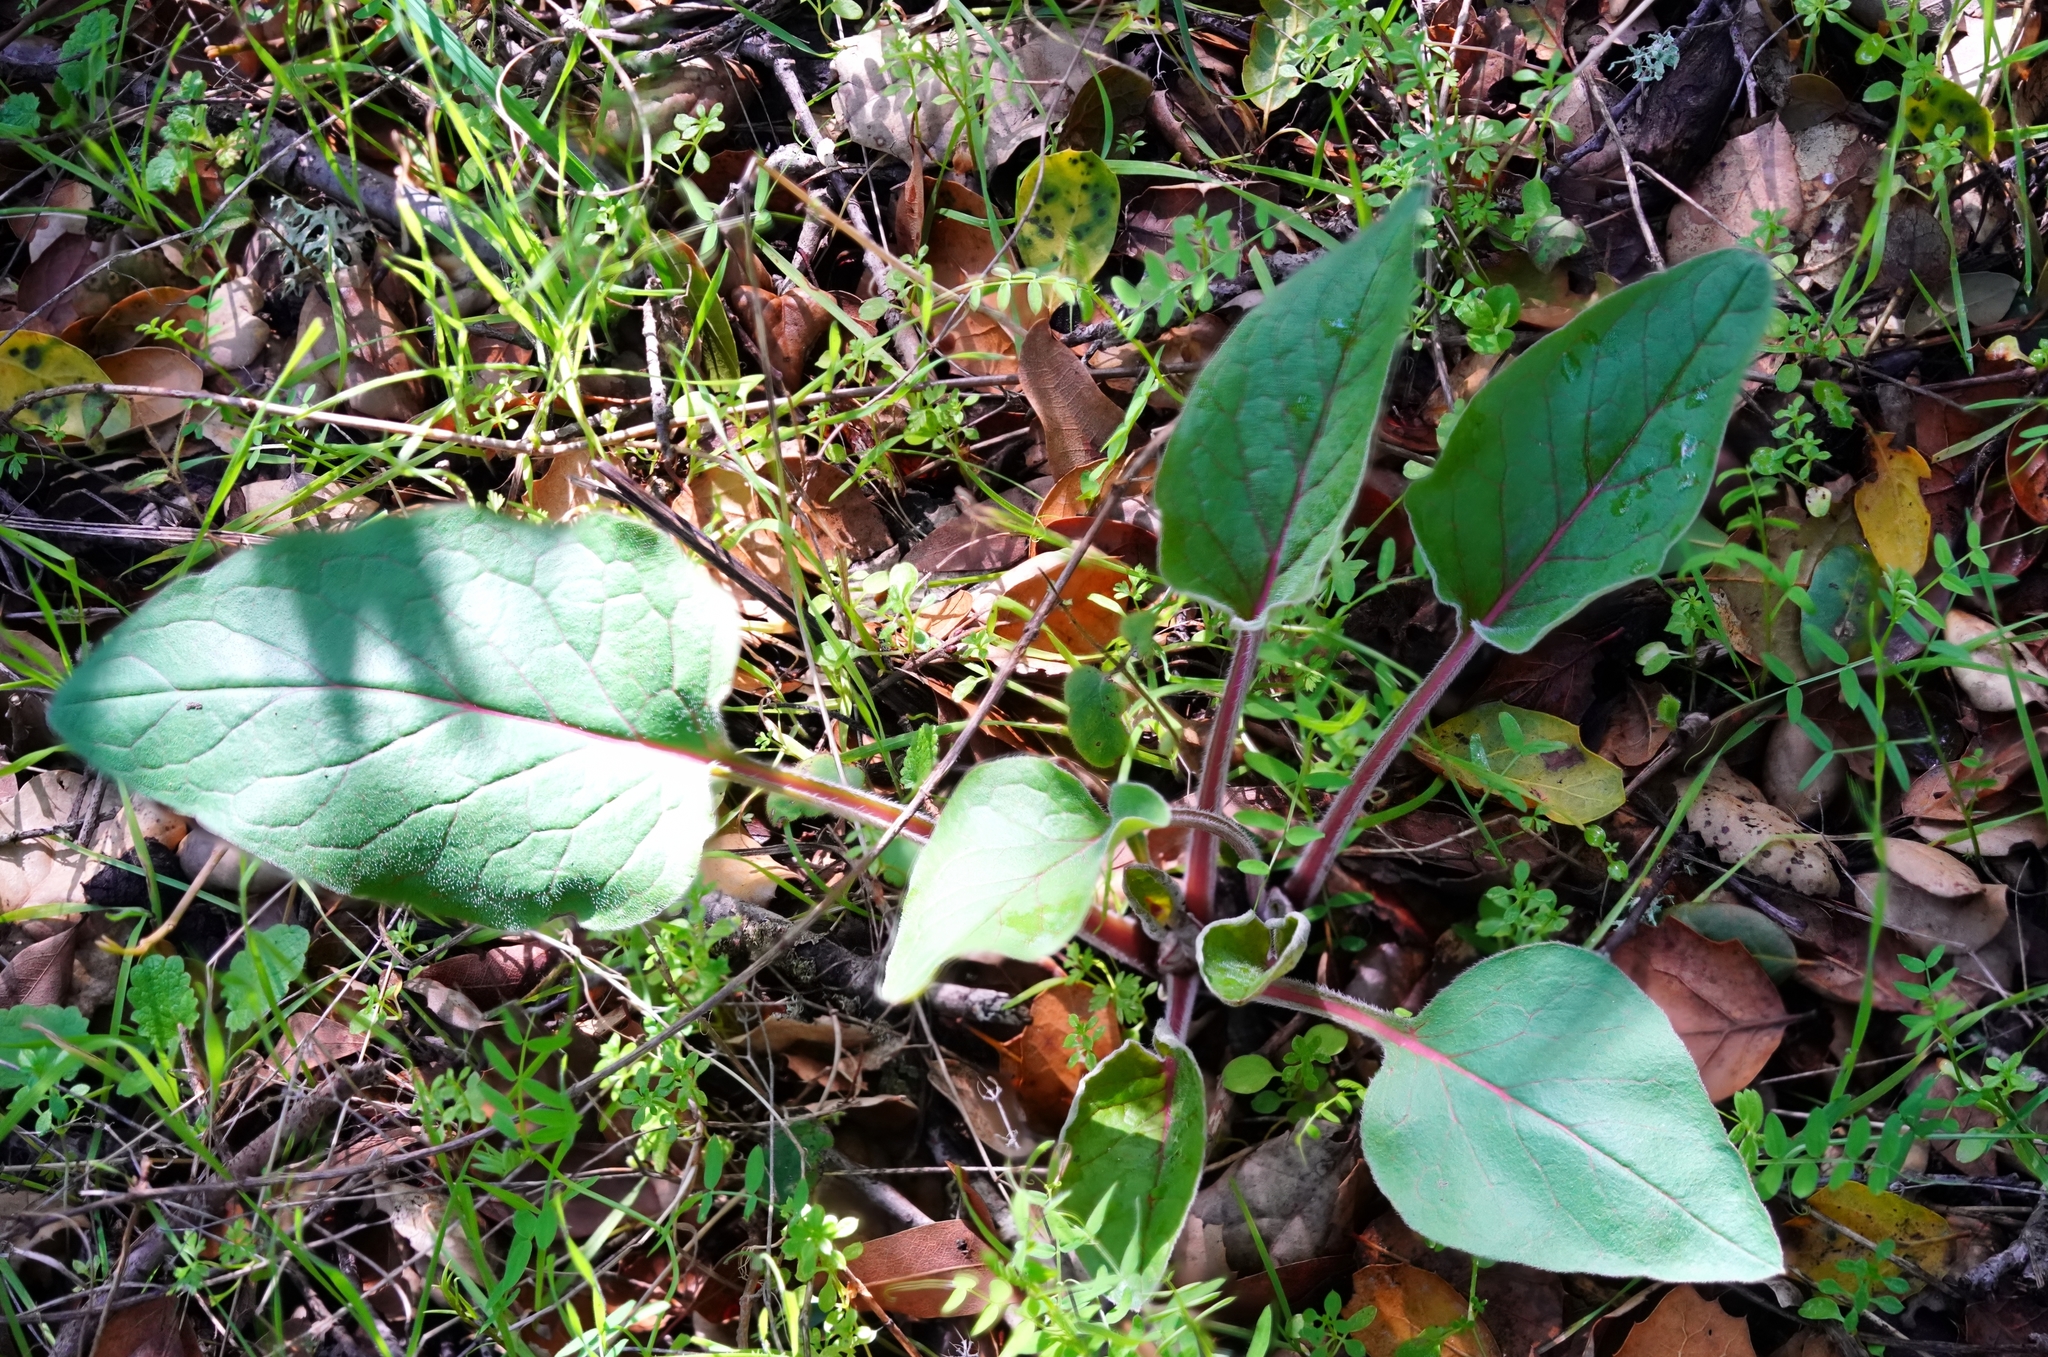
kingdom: Plantae
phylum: Tracheophyta
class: Magnoliopsida
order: Boraginales
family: Boraginaceae
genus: Adelinia
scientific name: Adelinia grande
